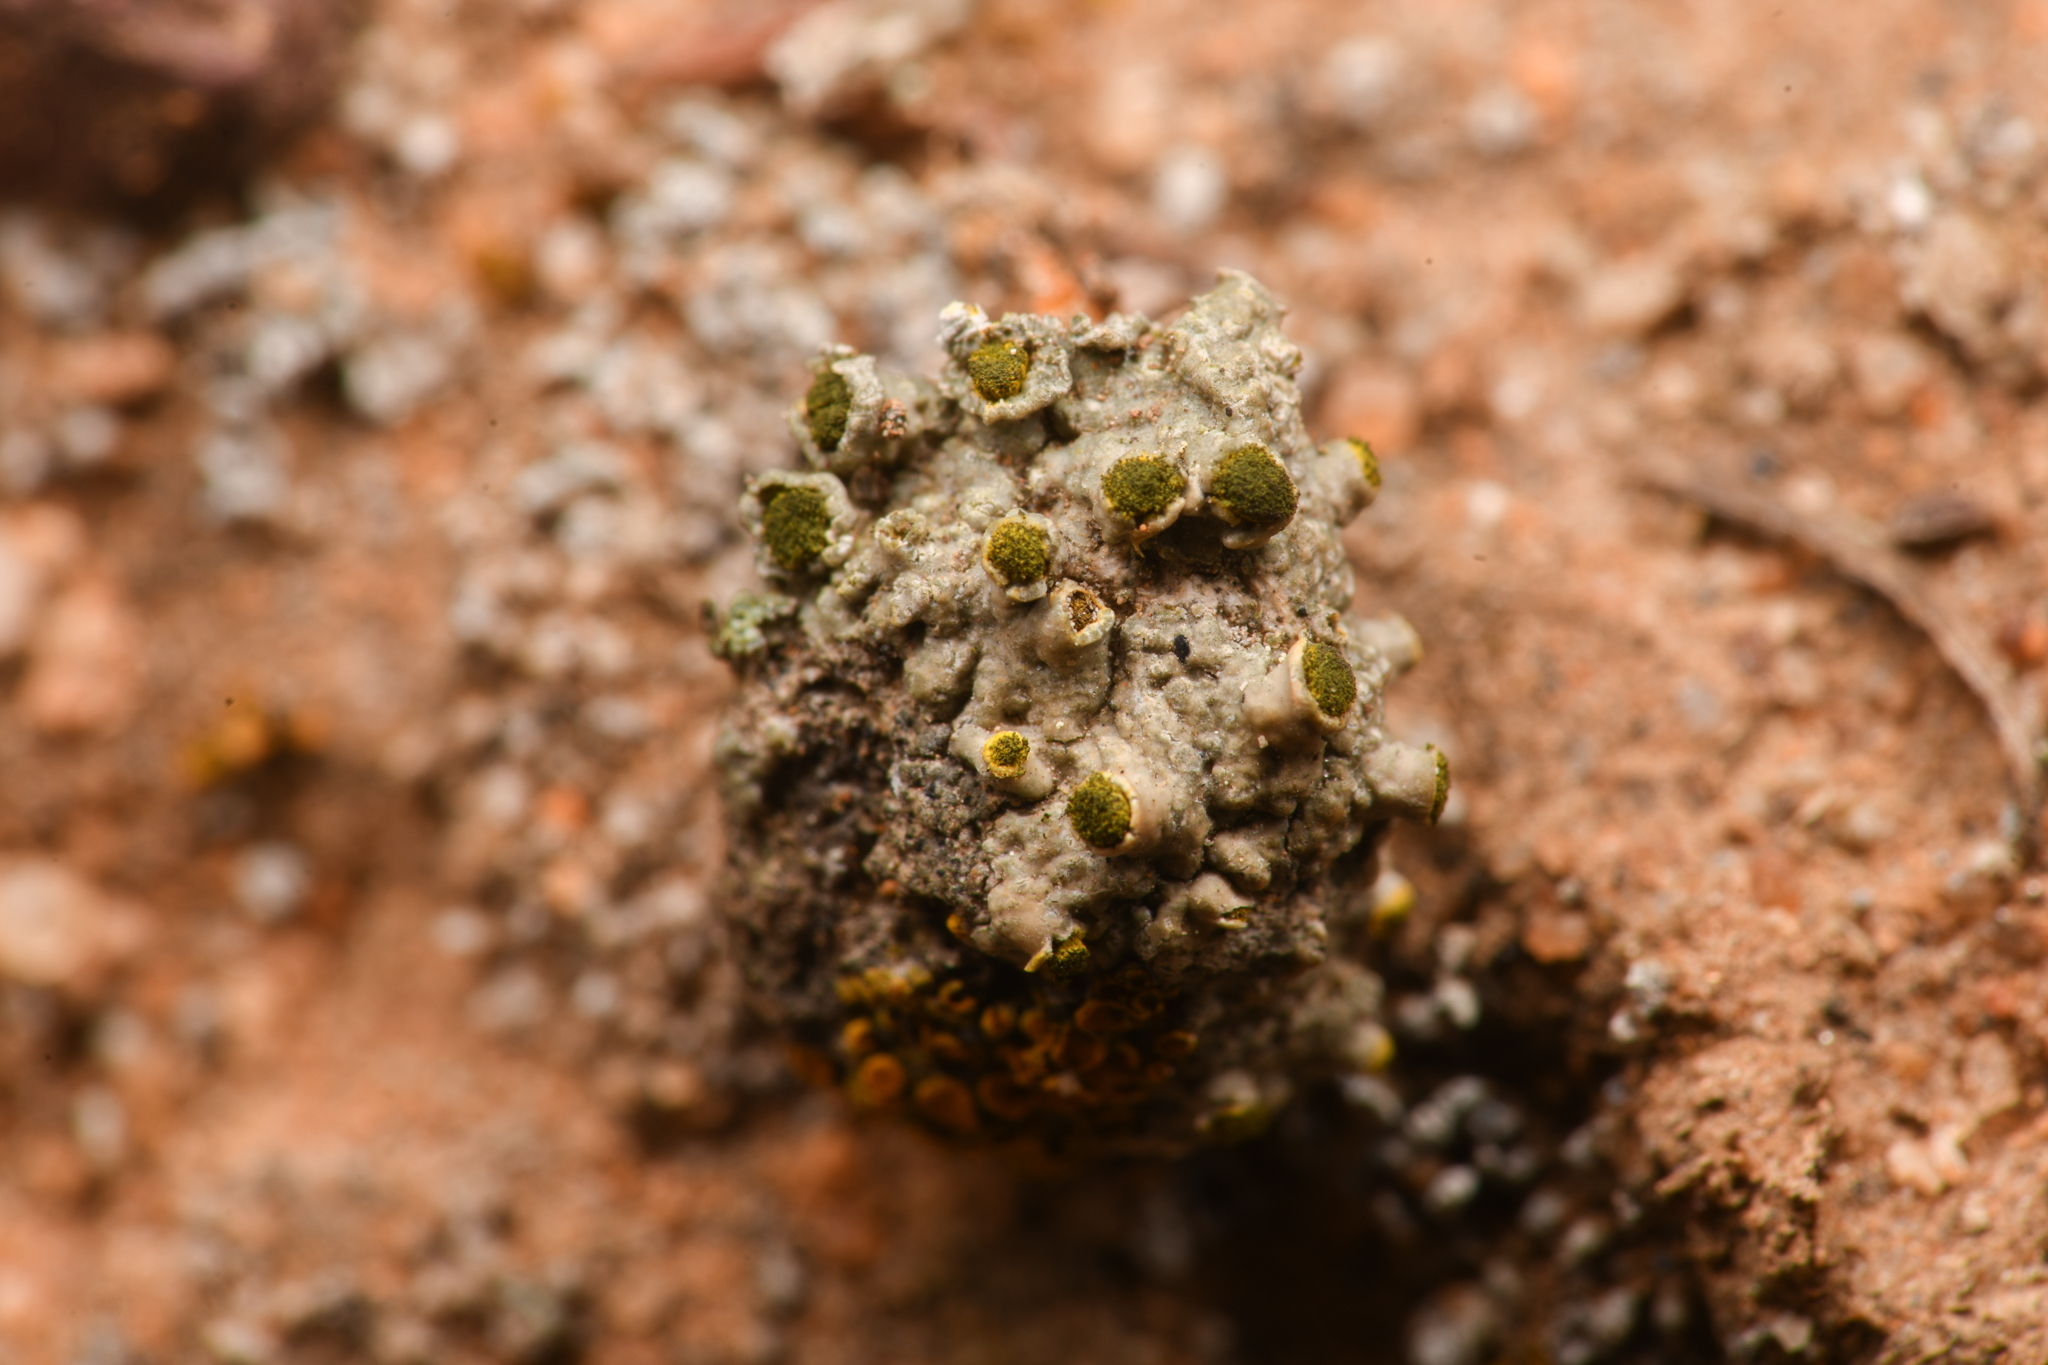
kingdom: Fungi
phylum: Ascomycota
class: Lecanoromycetes
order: Caliciales
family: Caliciaceae
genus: Texosporium
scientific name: Texosporium sancti-jacobi
